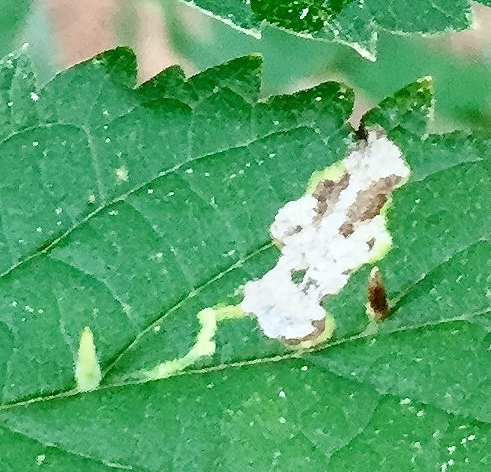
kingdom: Animalia
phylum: Arthropoda
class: Insecta
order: Diptera
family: Cecidomyiidae
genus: Celticecis
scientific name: Celticecis
